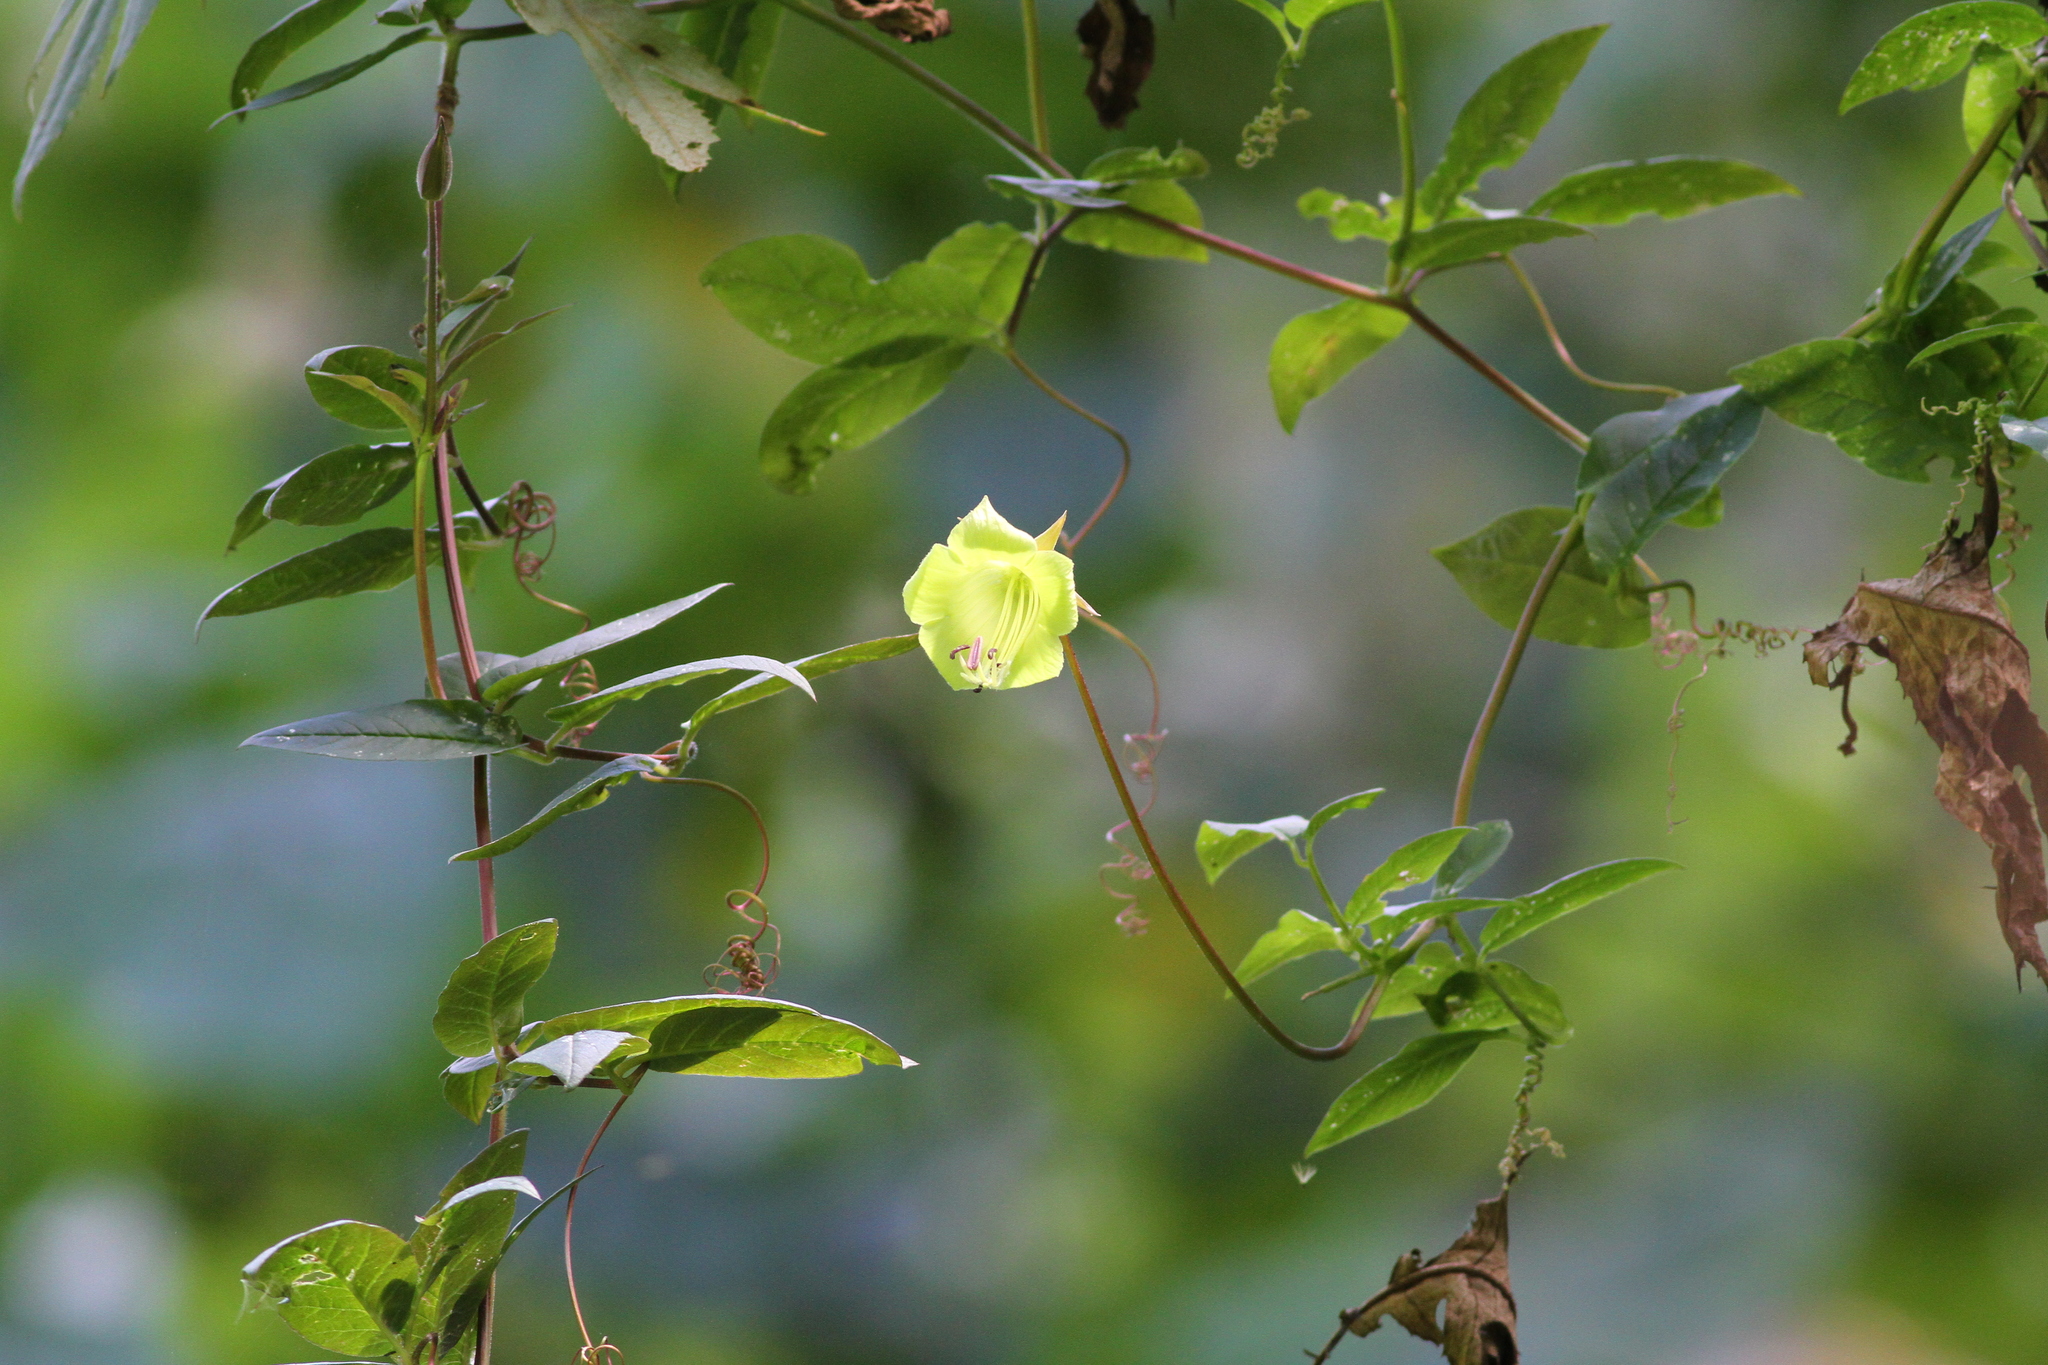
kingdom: Plantae
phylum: Tracheophyta
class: Magnoliopsida
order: Ericales
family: Polemoniaceae
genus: Cobaea
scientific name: Cobaea pachysepala
